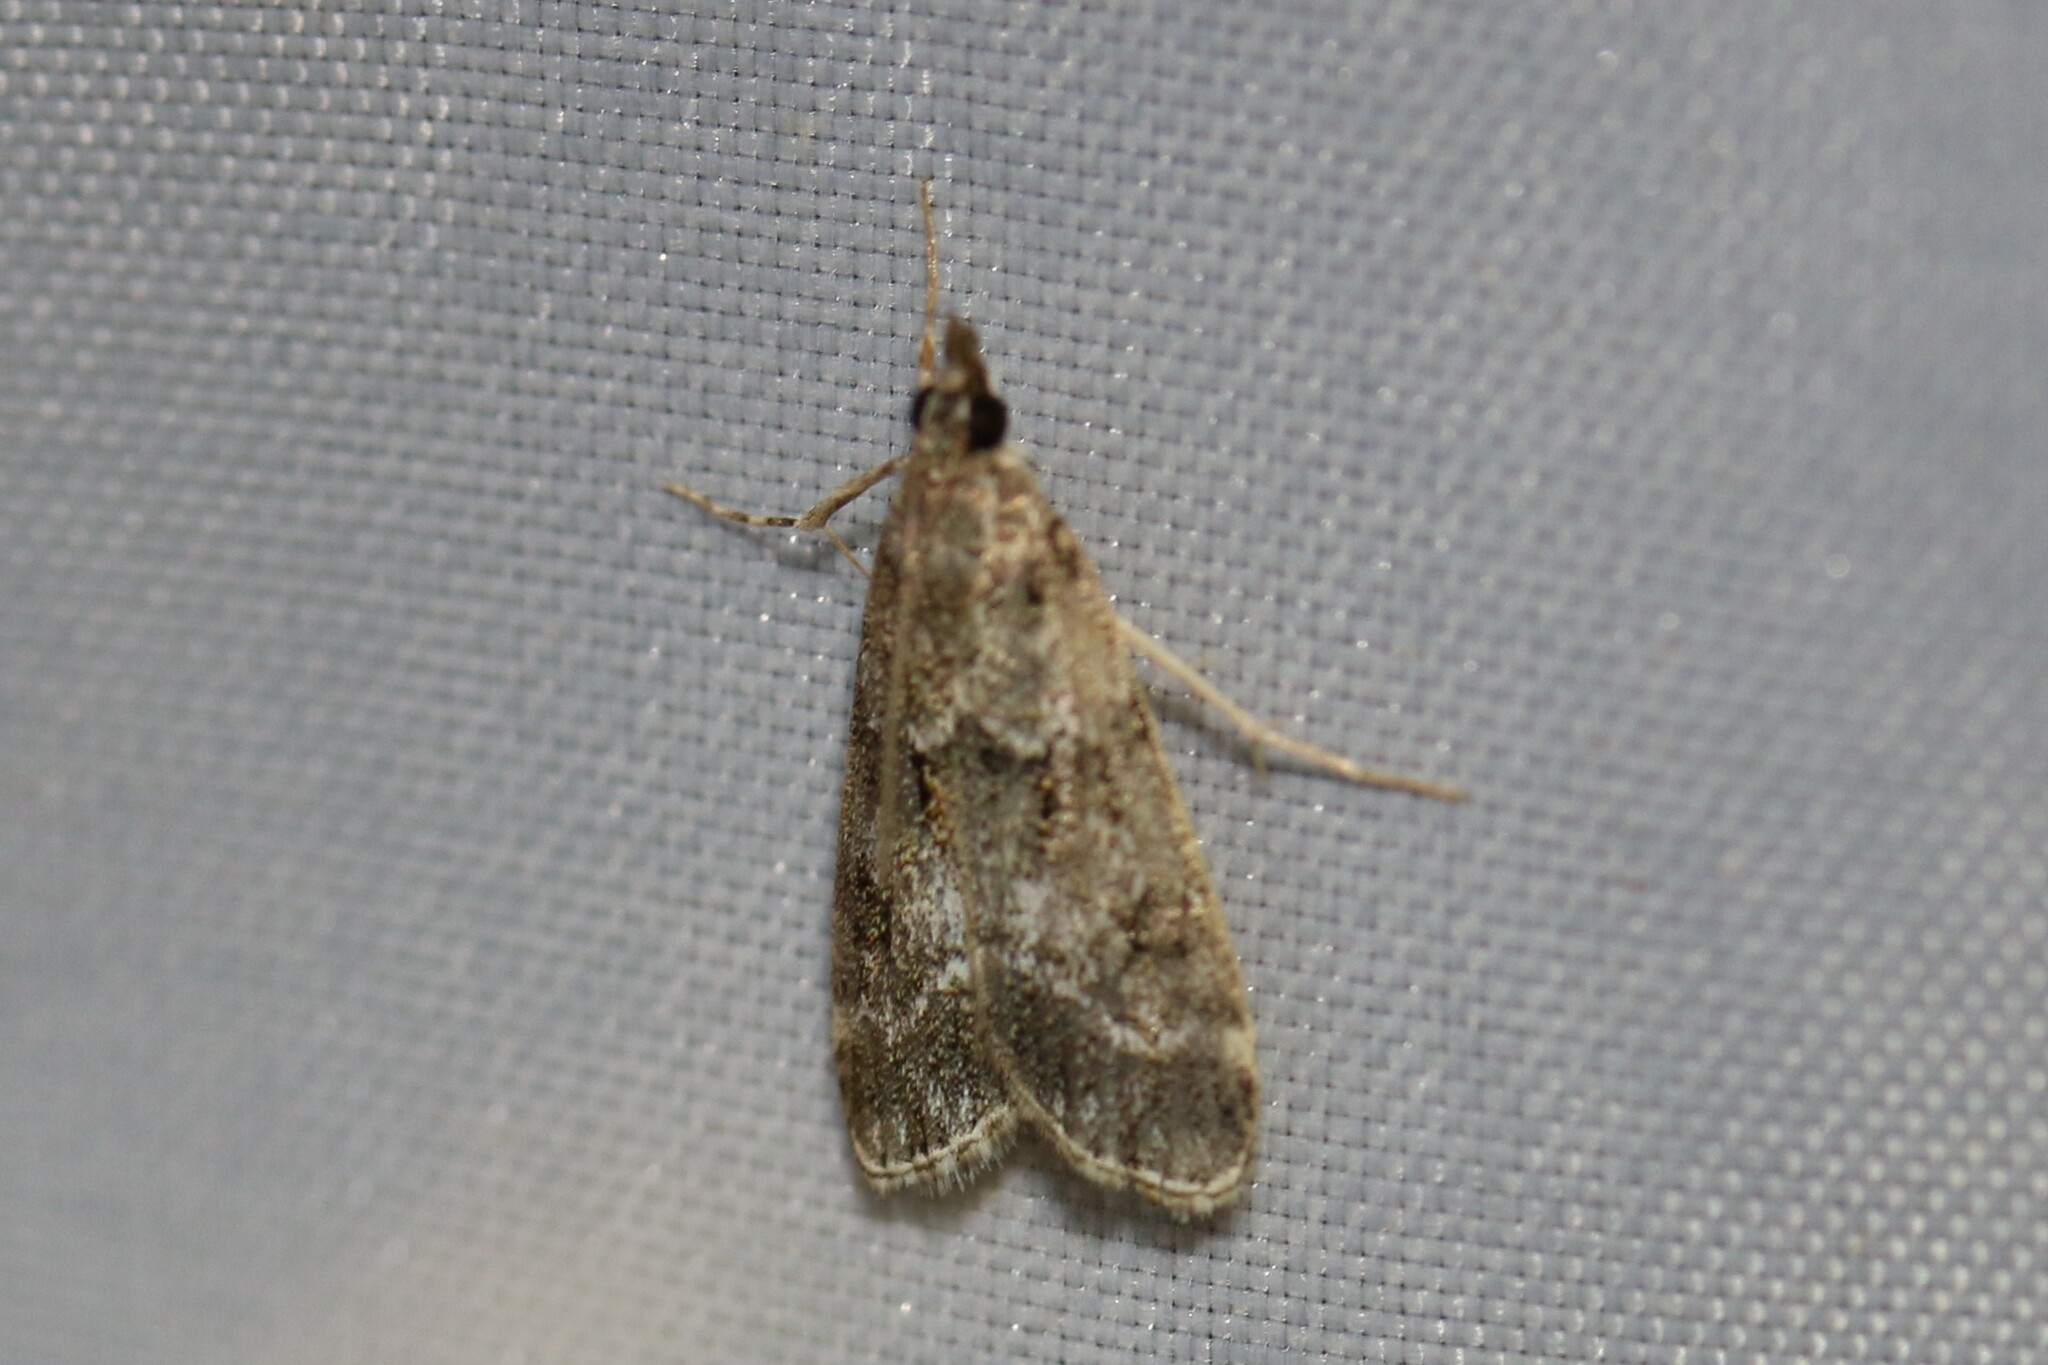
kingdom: Animalia
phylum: Arthropoda
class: Insecta
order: Lepidoptera
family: Crambidae
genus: Eudonia
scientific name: Eudonia mercurella
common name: Small grey
